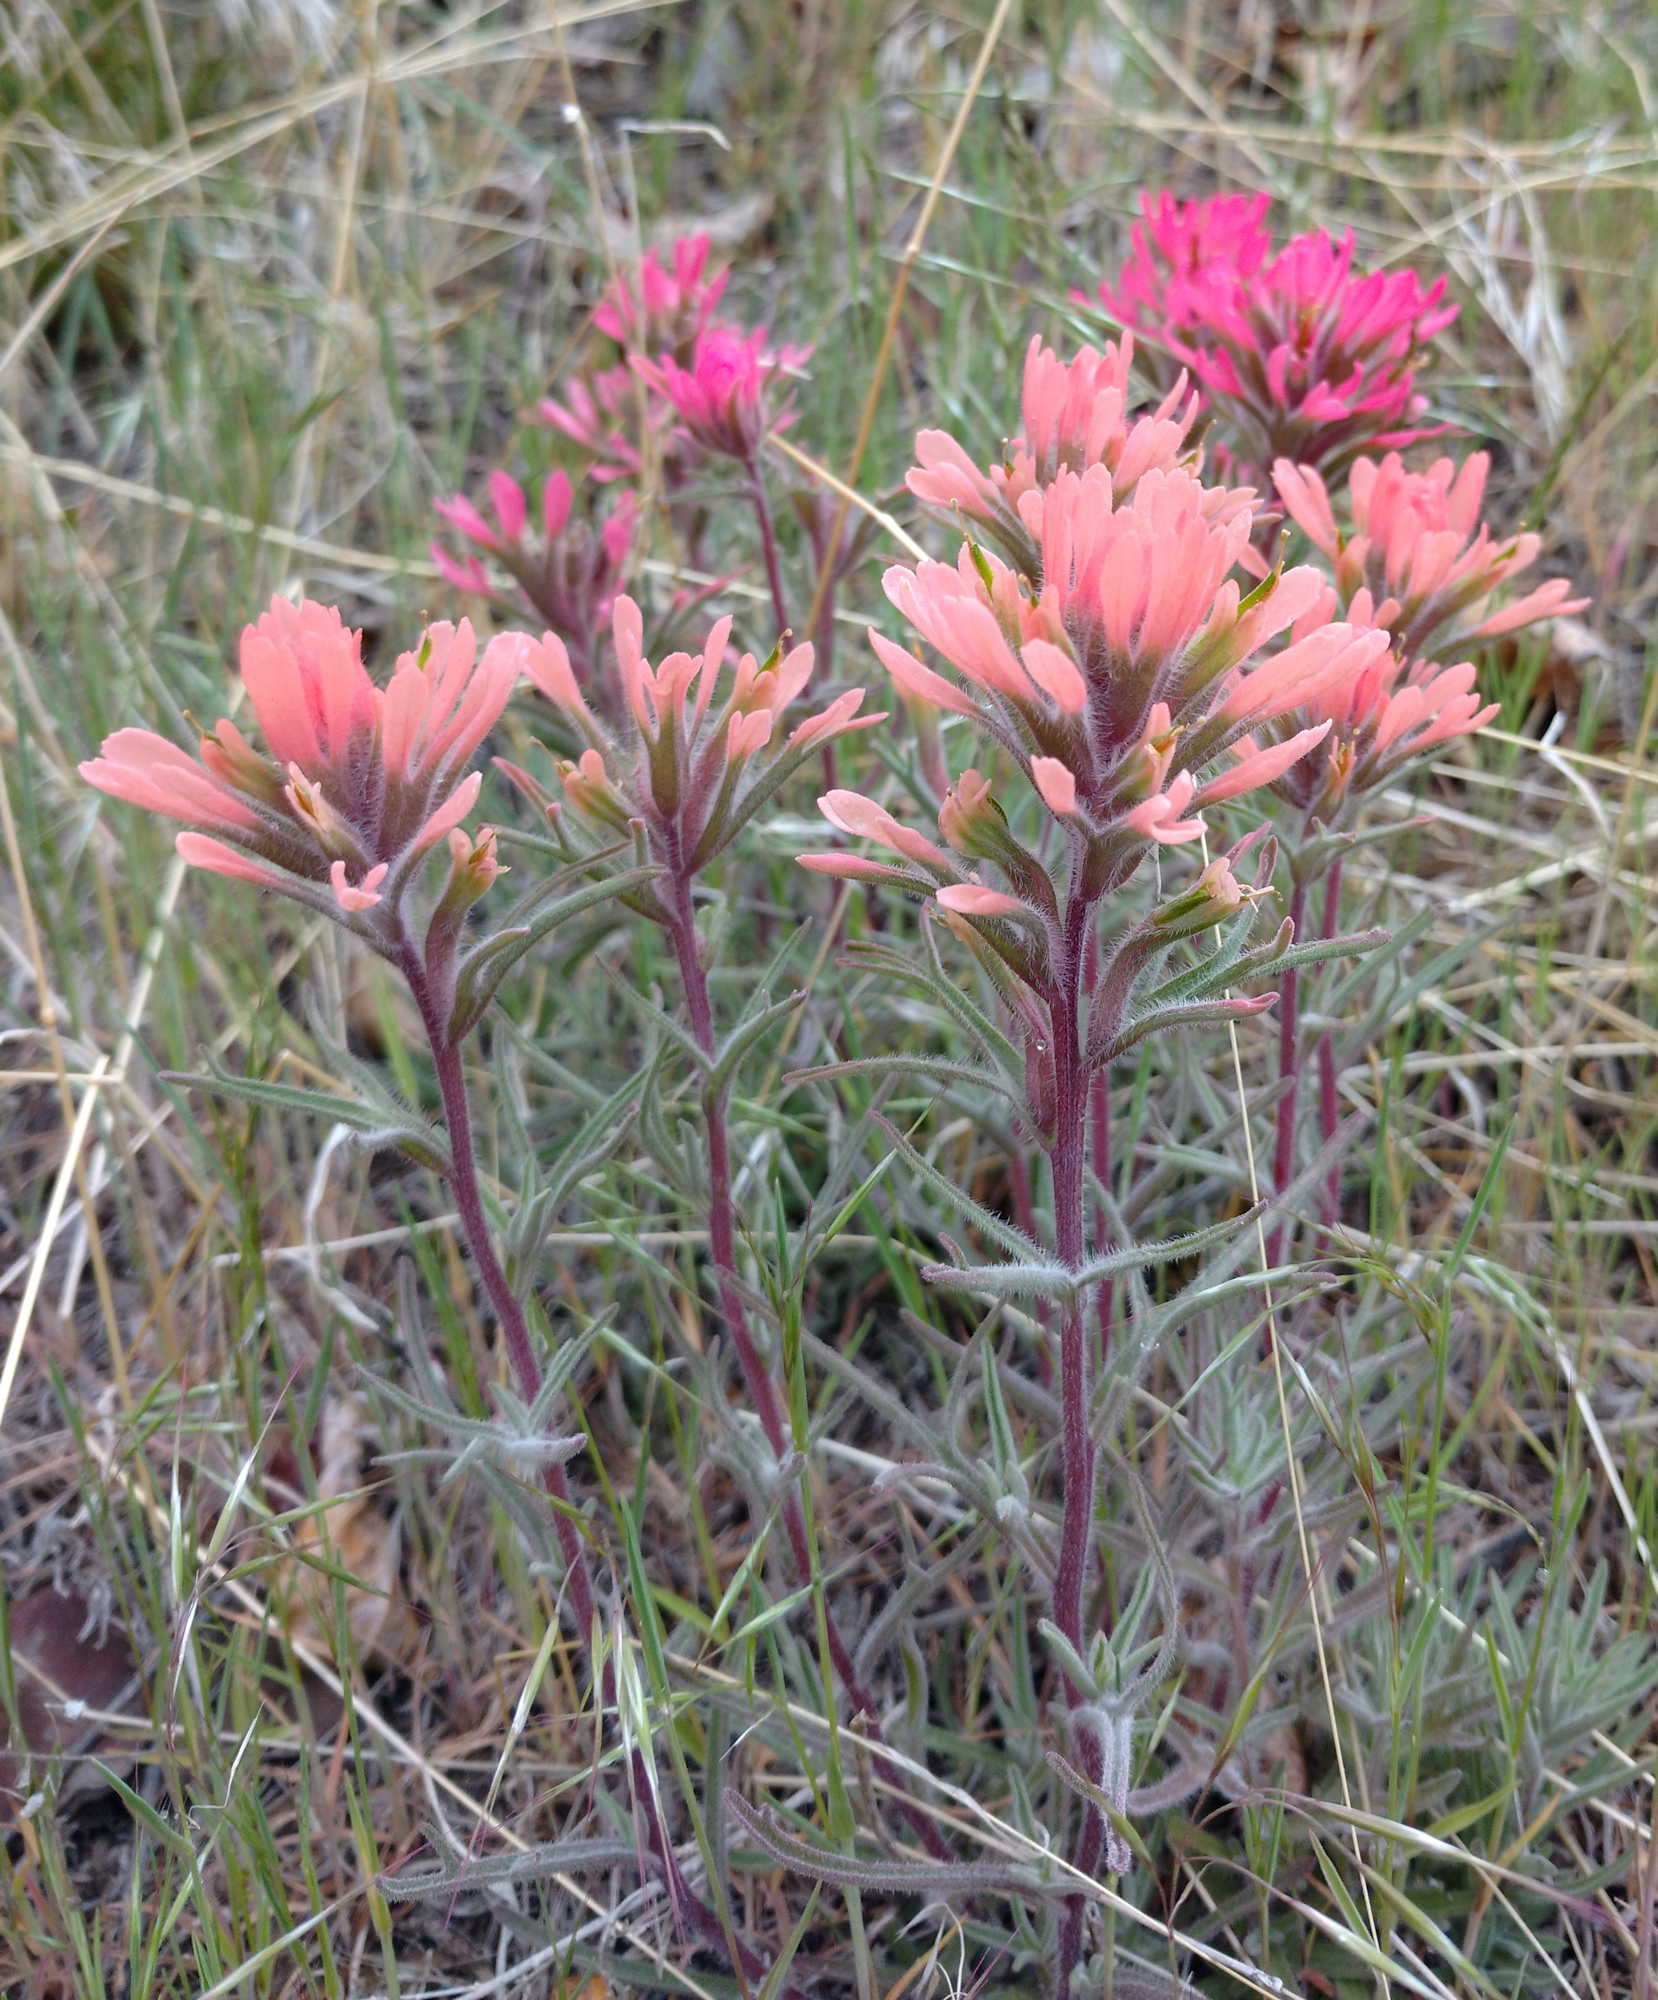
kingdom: Plantae
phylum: Tracheophyta
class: Magnoliopsida
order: Lamiales
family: Orobanchaceae
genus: Castilleja
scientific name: Castilleja angustifolia
